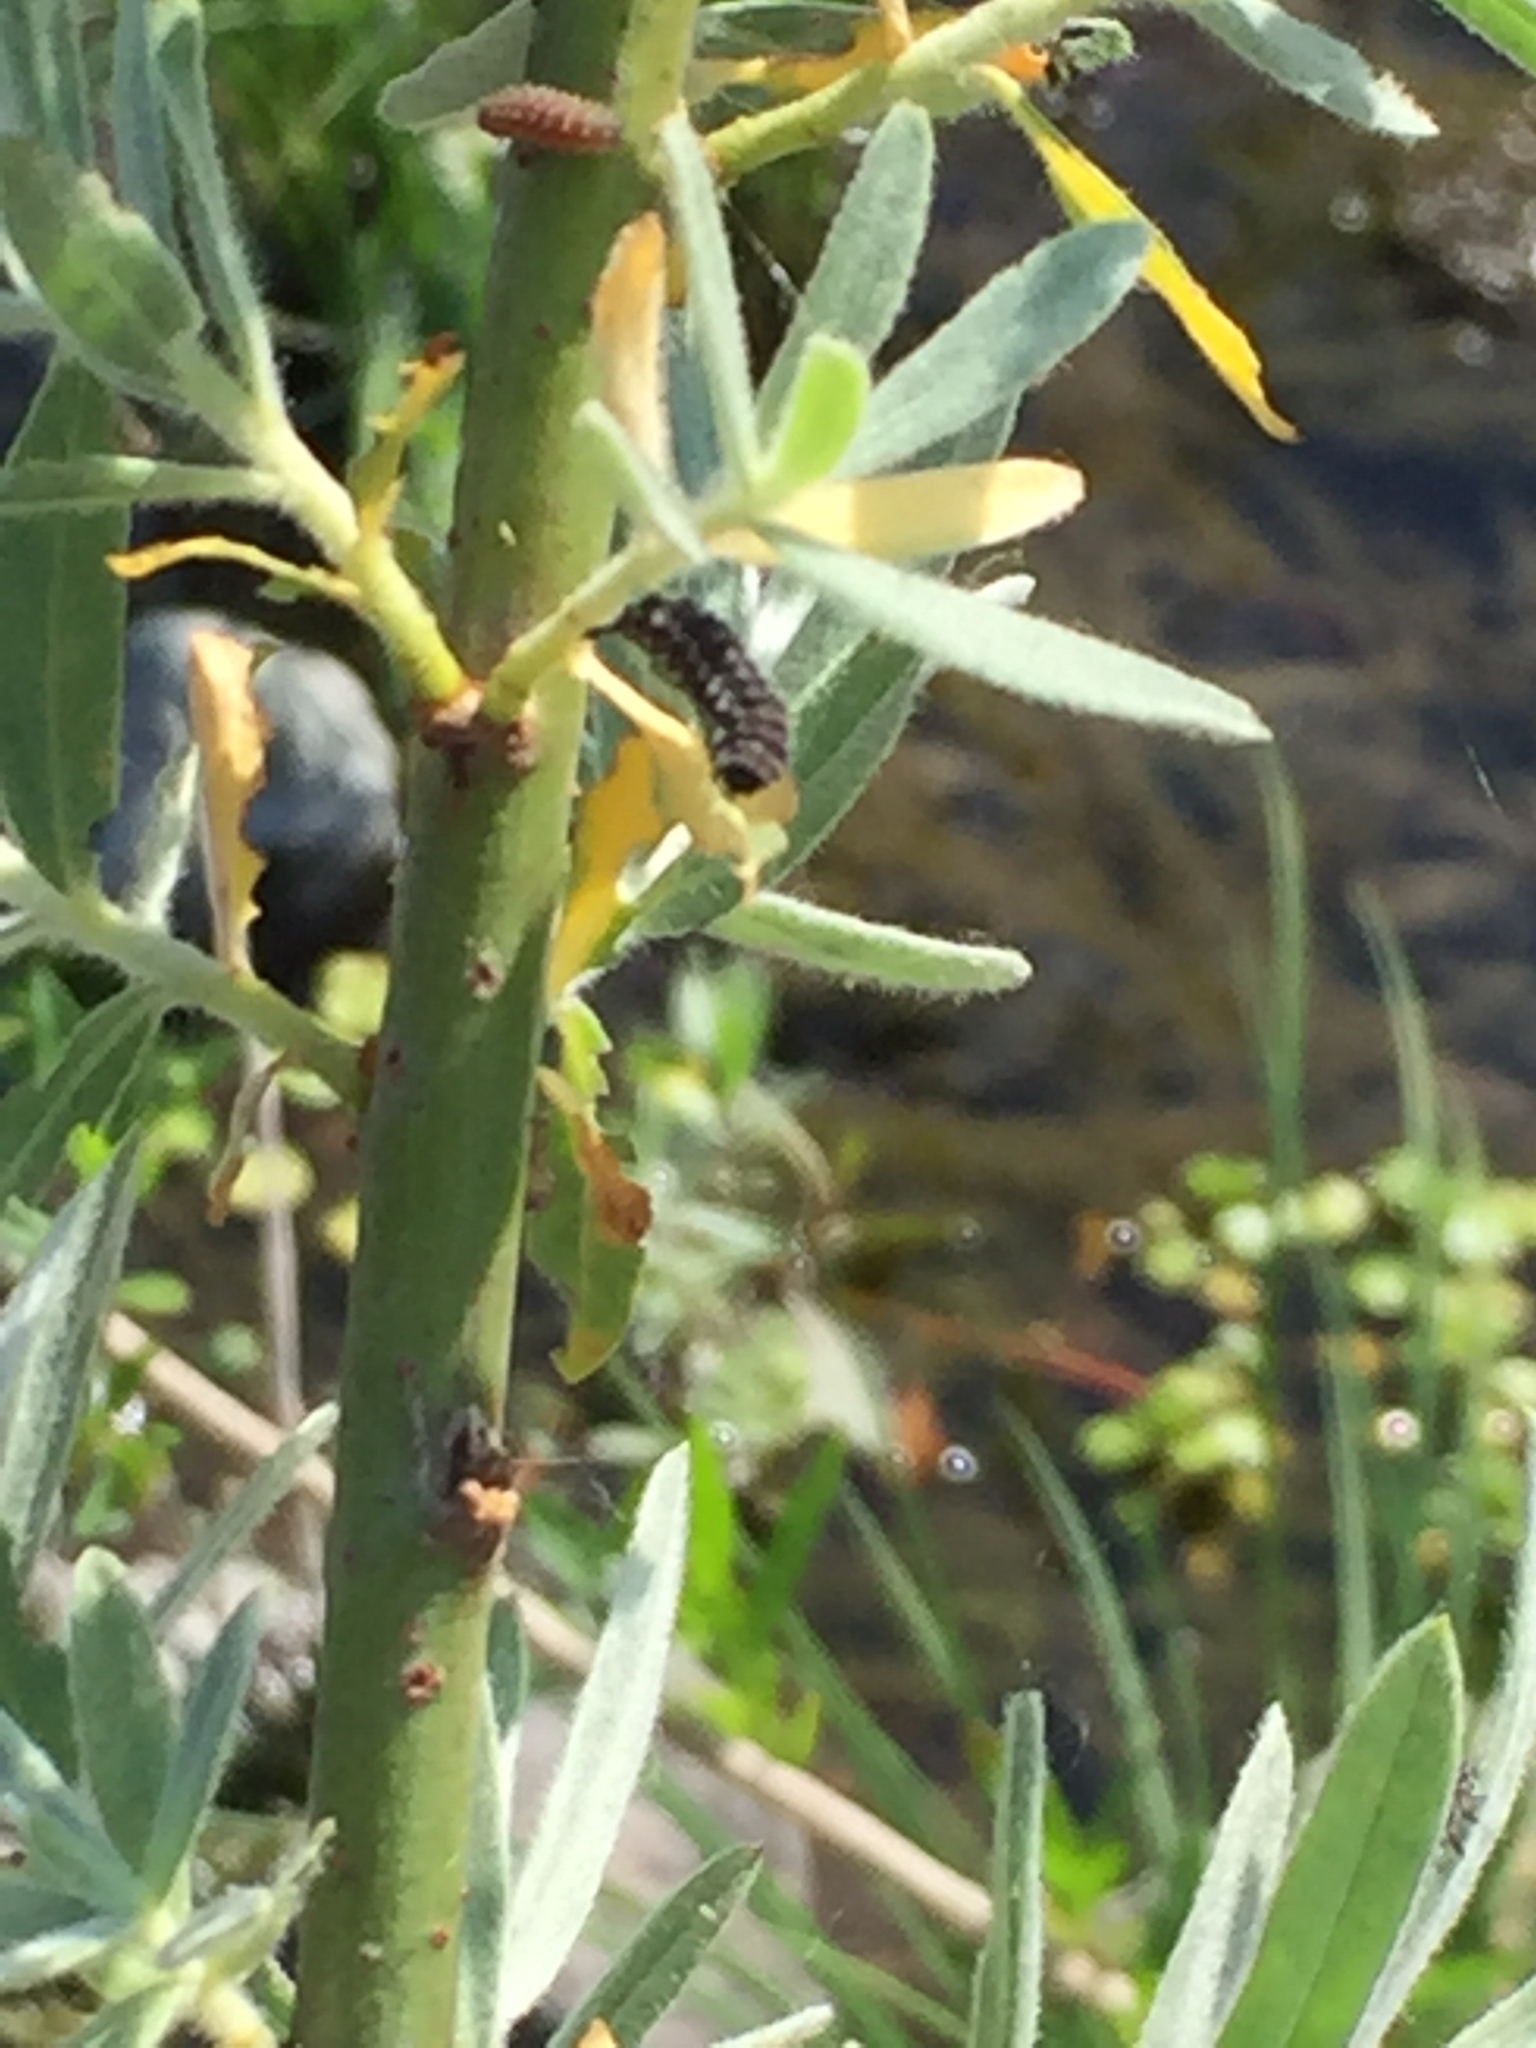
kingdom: Animalia
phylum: Arthropoda
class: Insecta
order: Coleoptera
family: Chrysomelidae
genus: Chrysomela
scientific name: Chrysomela confluens
